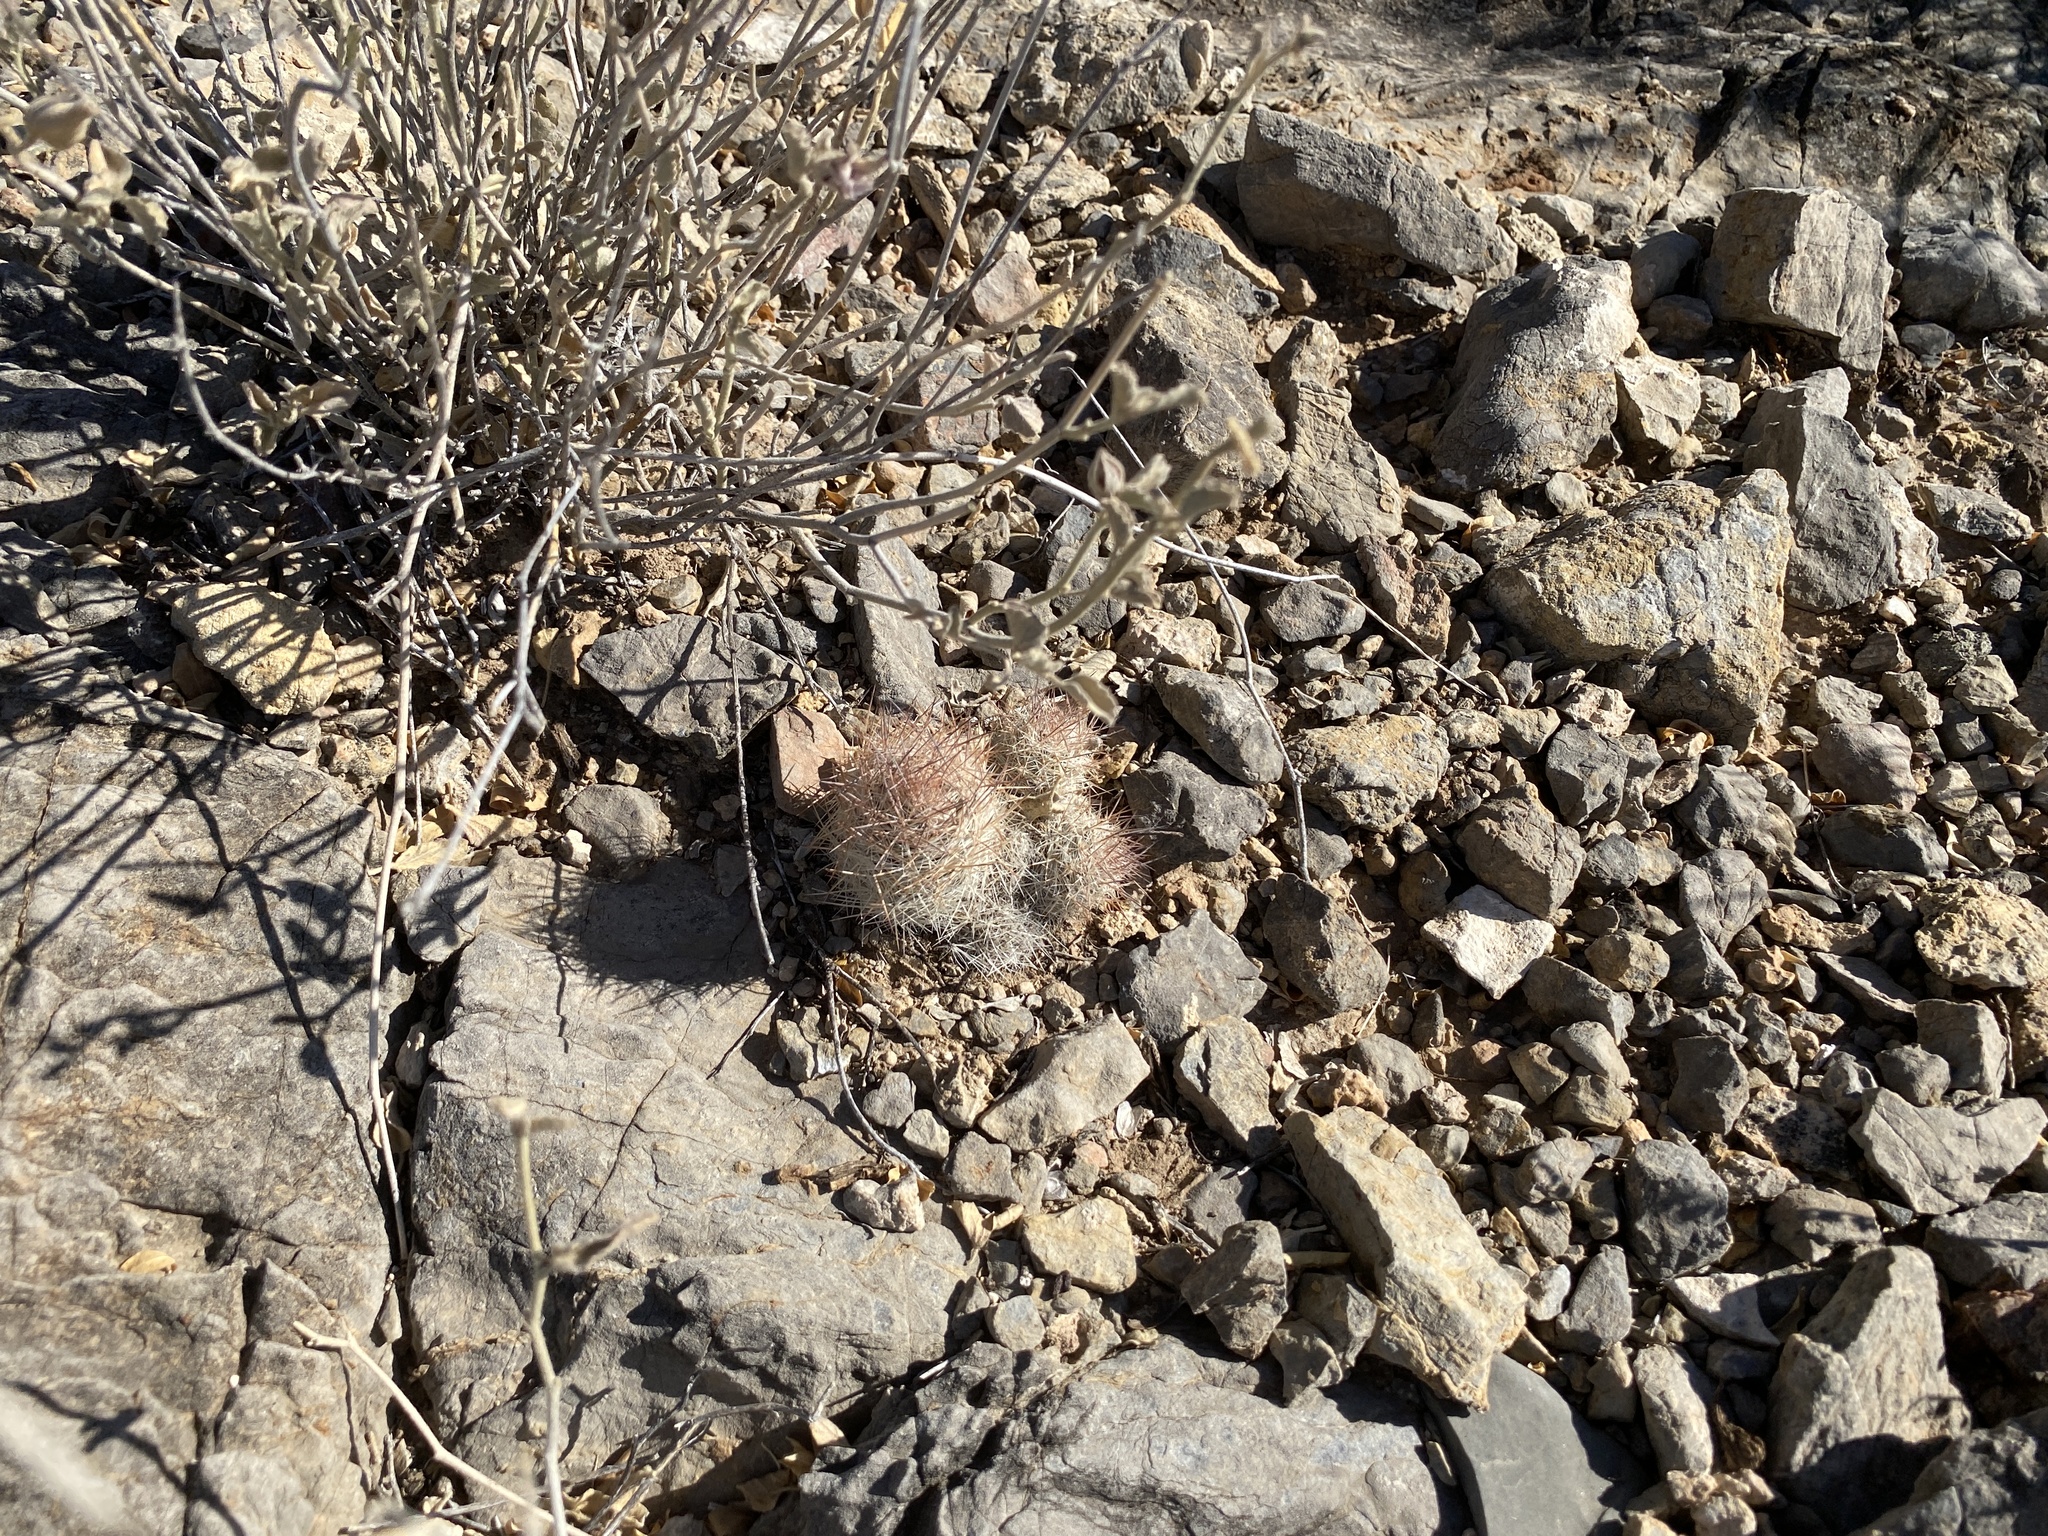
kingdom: Plantae
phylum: Tracheophyta
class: Magnoliopsida
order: Caryophyllales
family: Cactaceae
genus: Pelecyphora
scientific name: Pelecyphora tuberculosa
